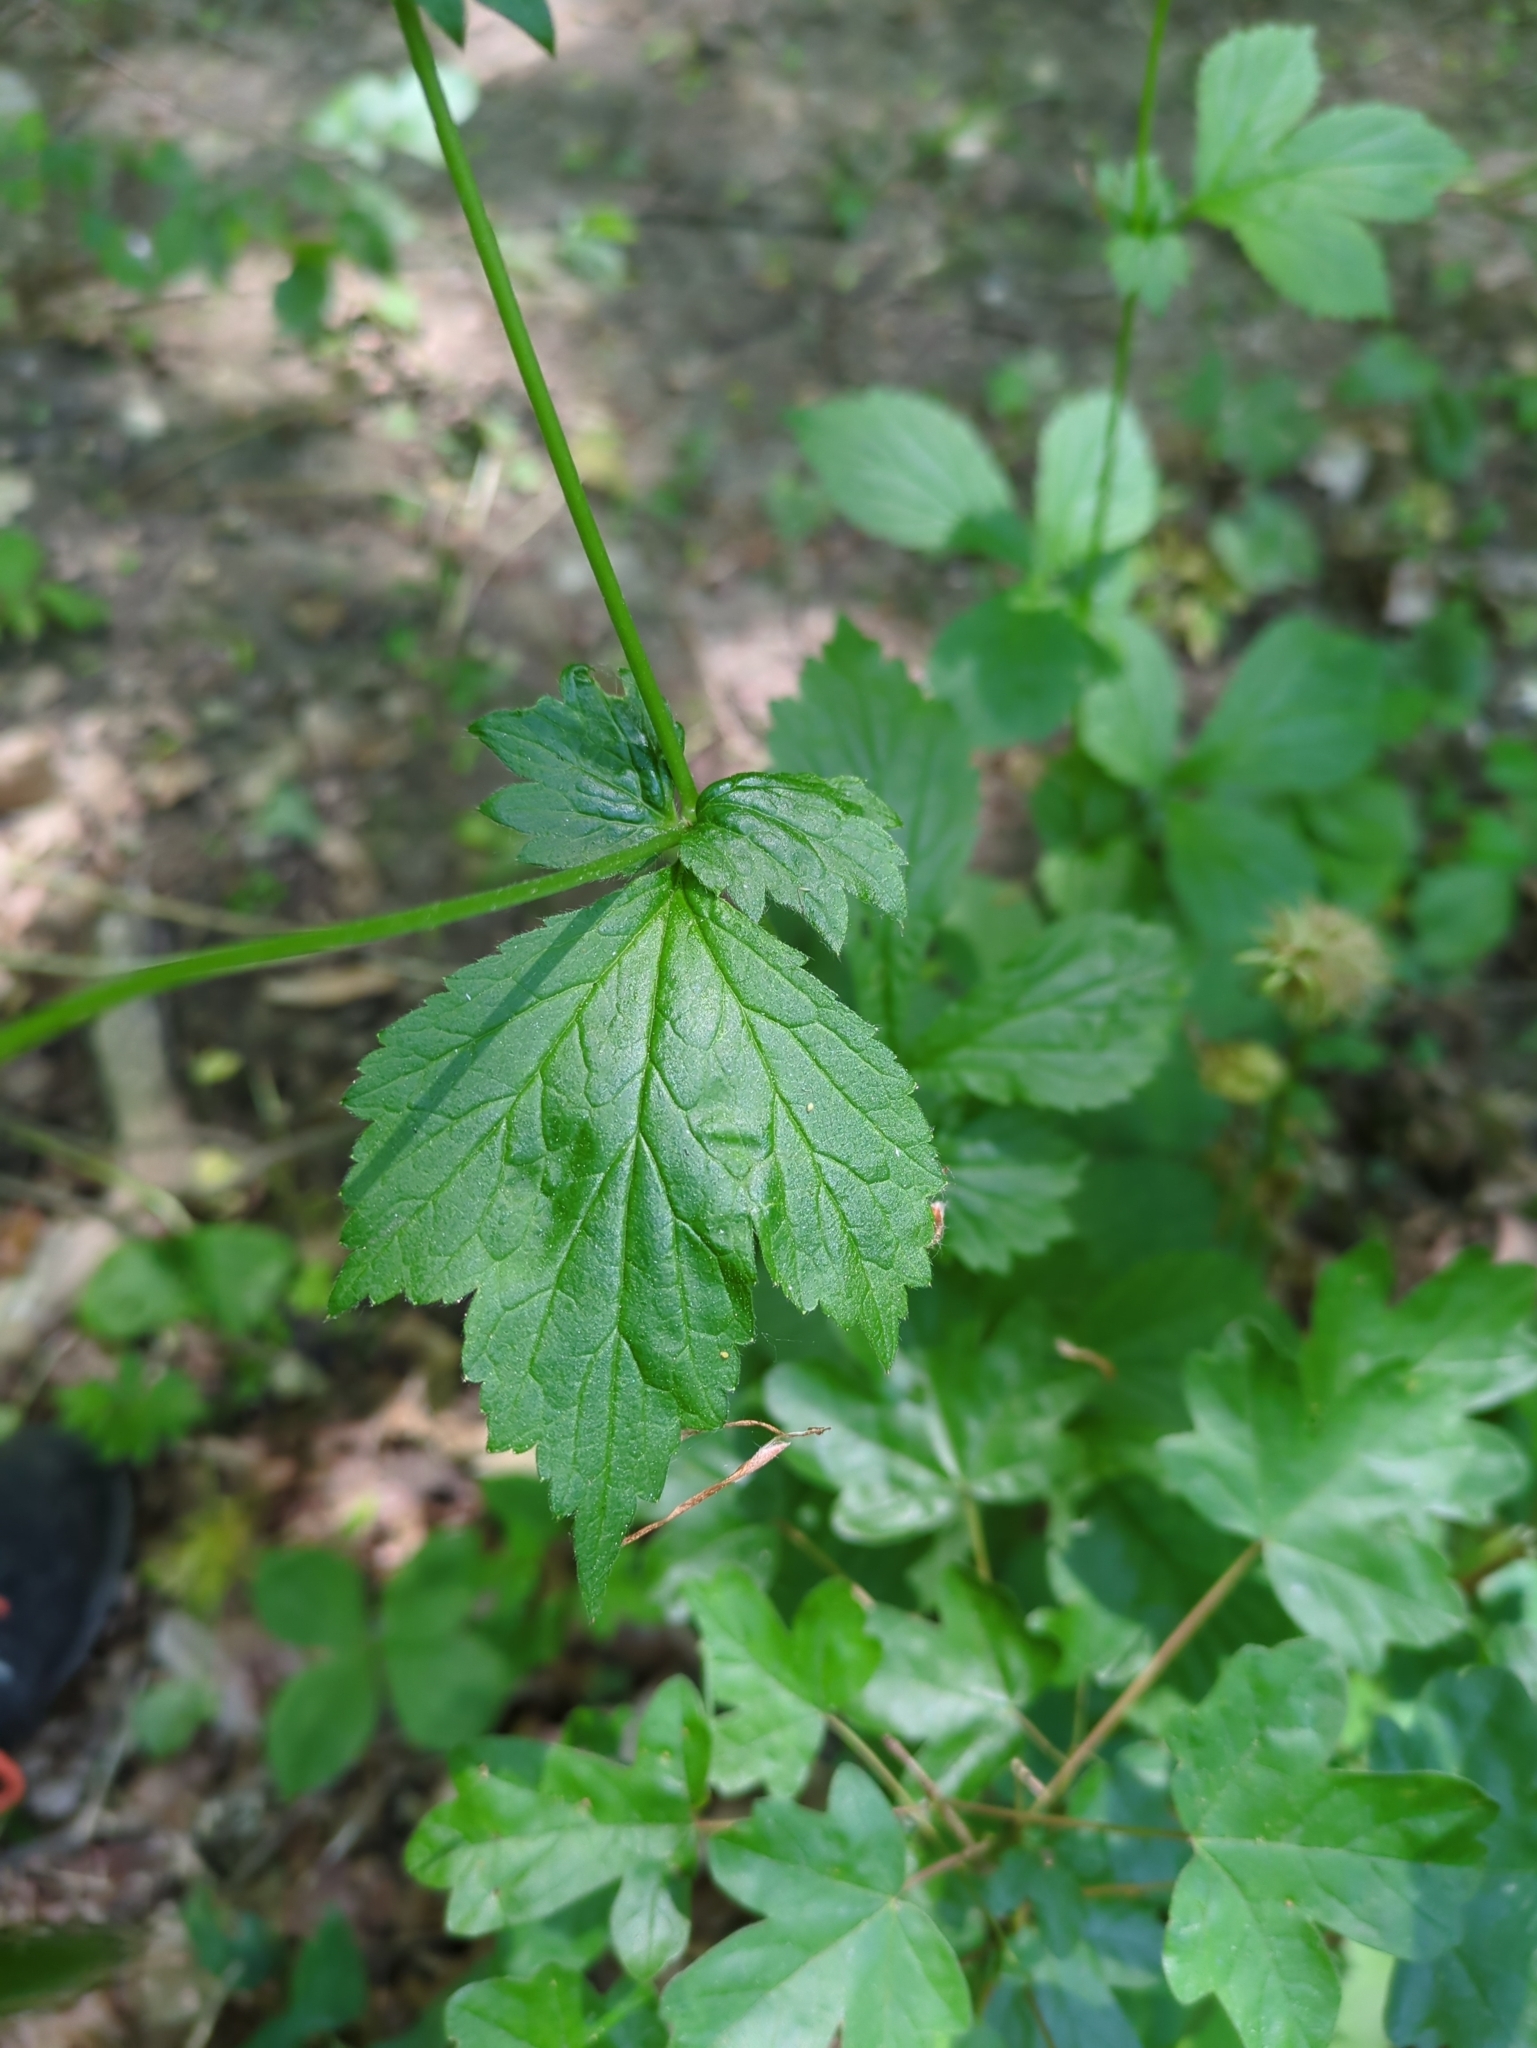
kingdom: Plantae
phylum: Tracheophyta
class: Magnoliopsida
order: Rosales
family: Rosaceae
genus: Geum
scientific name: Geum urbanum
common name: Wood avens
